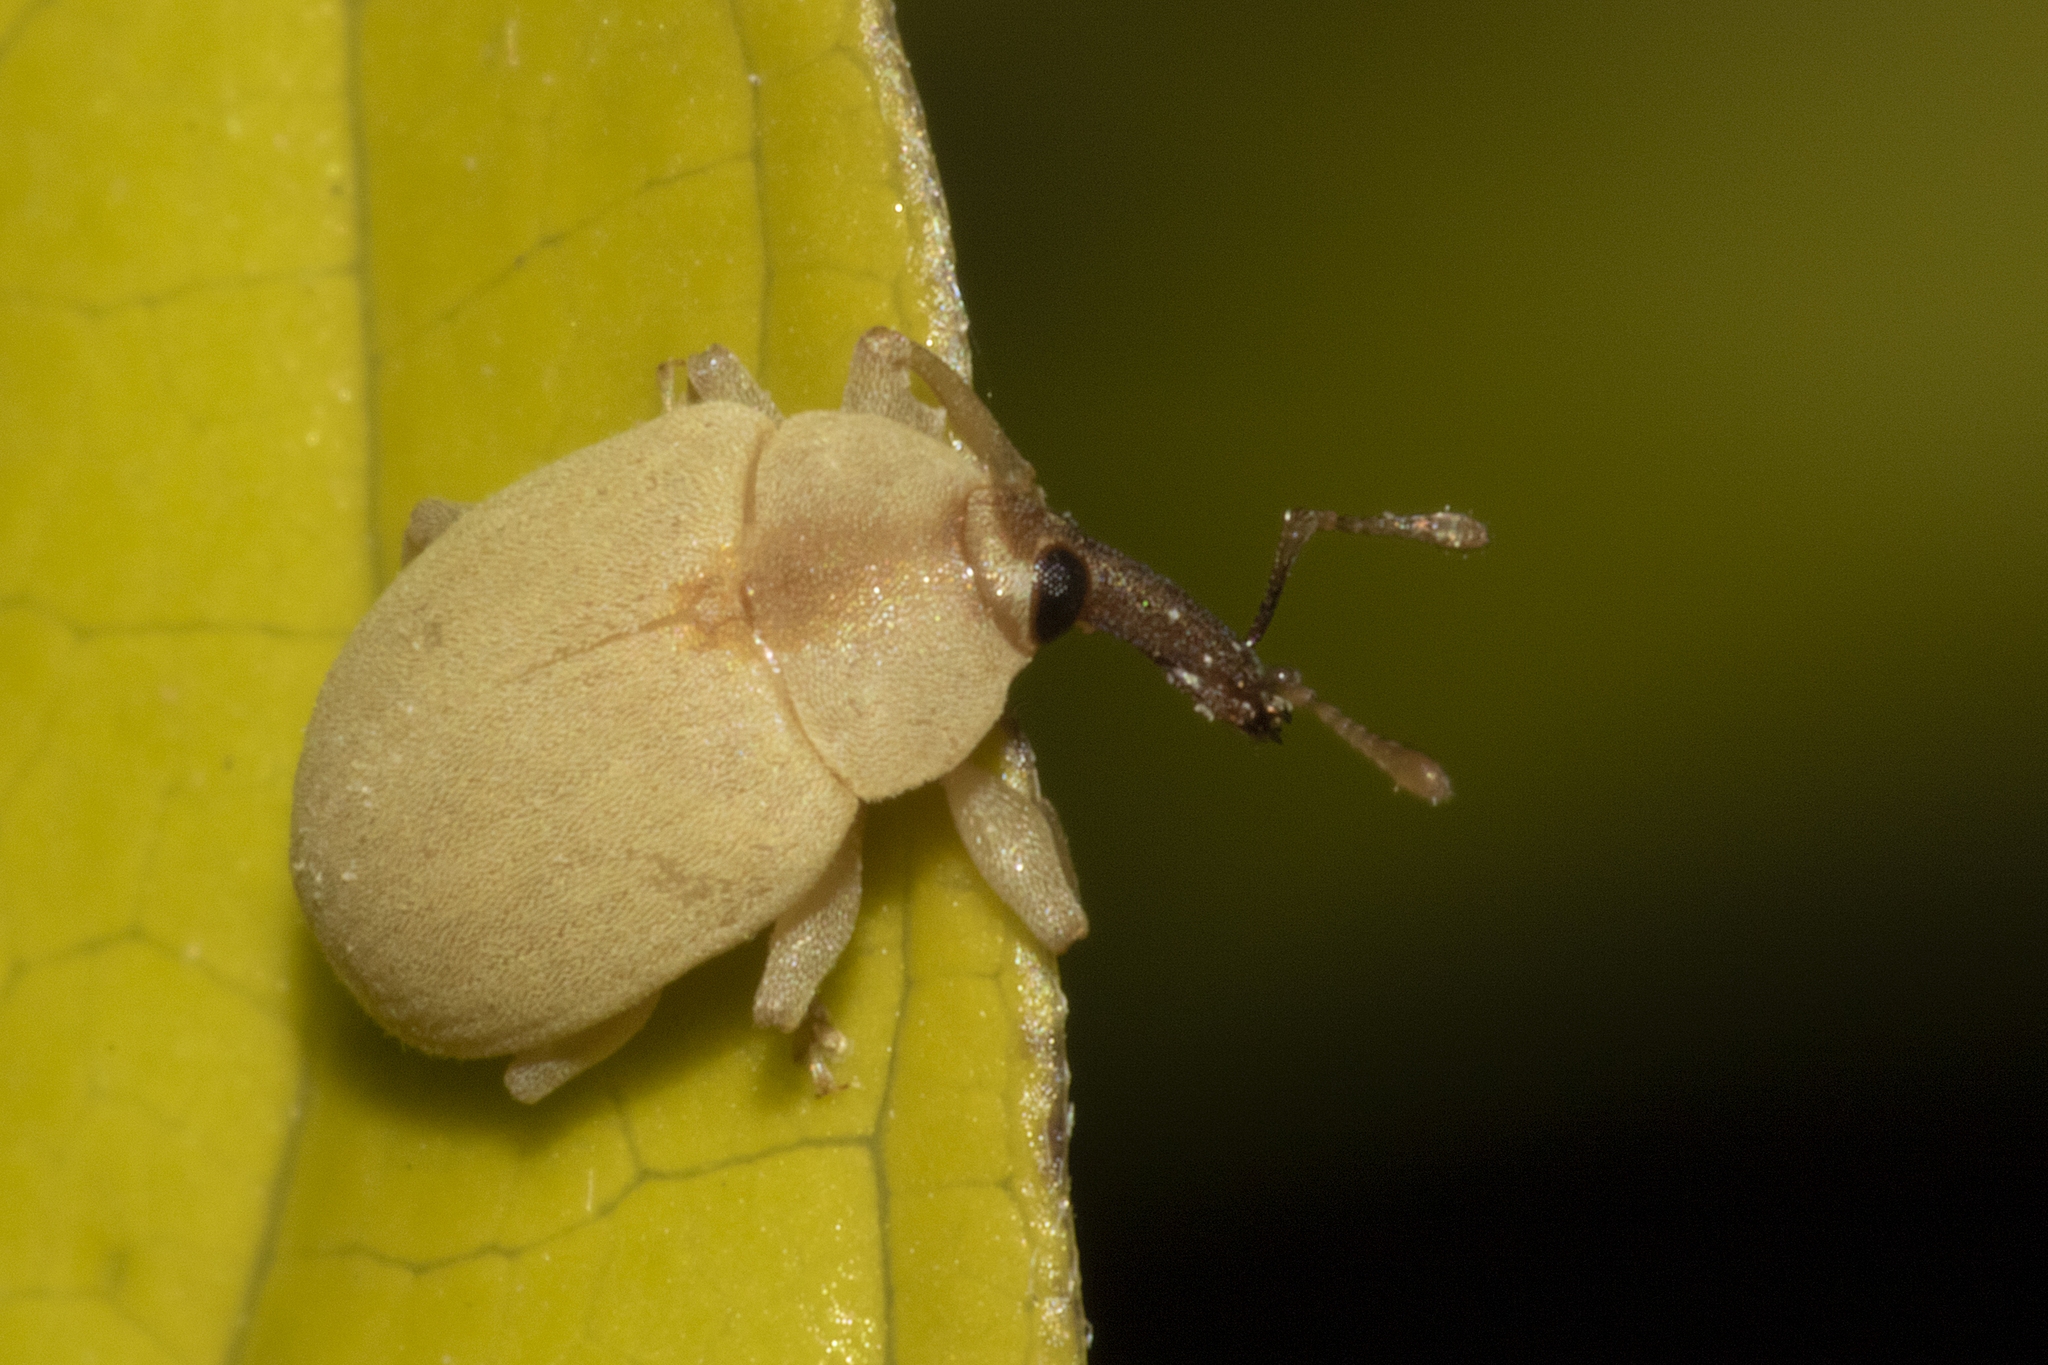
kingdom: Animalia
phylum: Arthropoda
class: Insecta
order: Coleoptera
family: Curculionidae
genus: Anchylorhynchus
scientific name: Anchylorhynchus aegrotus
